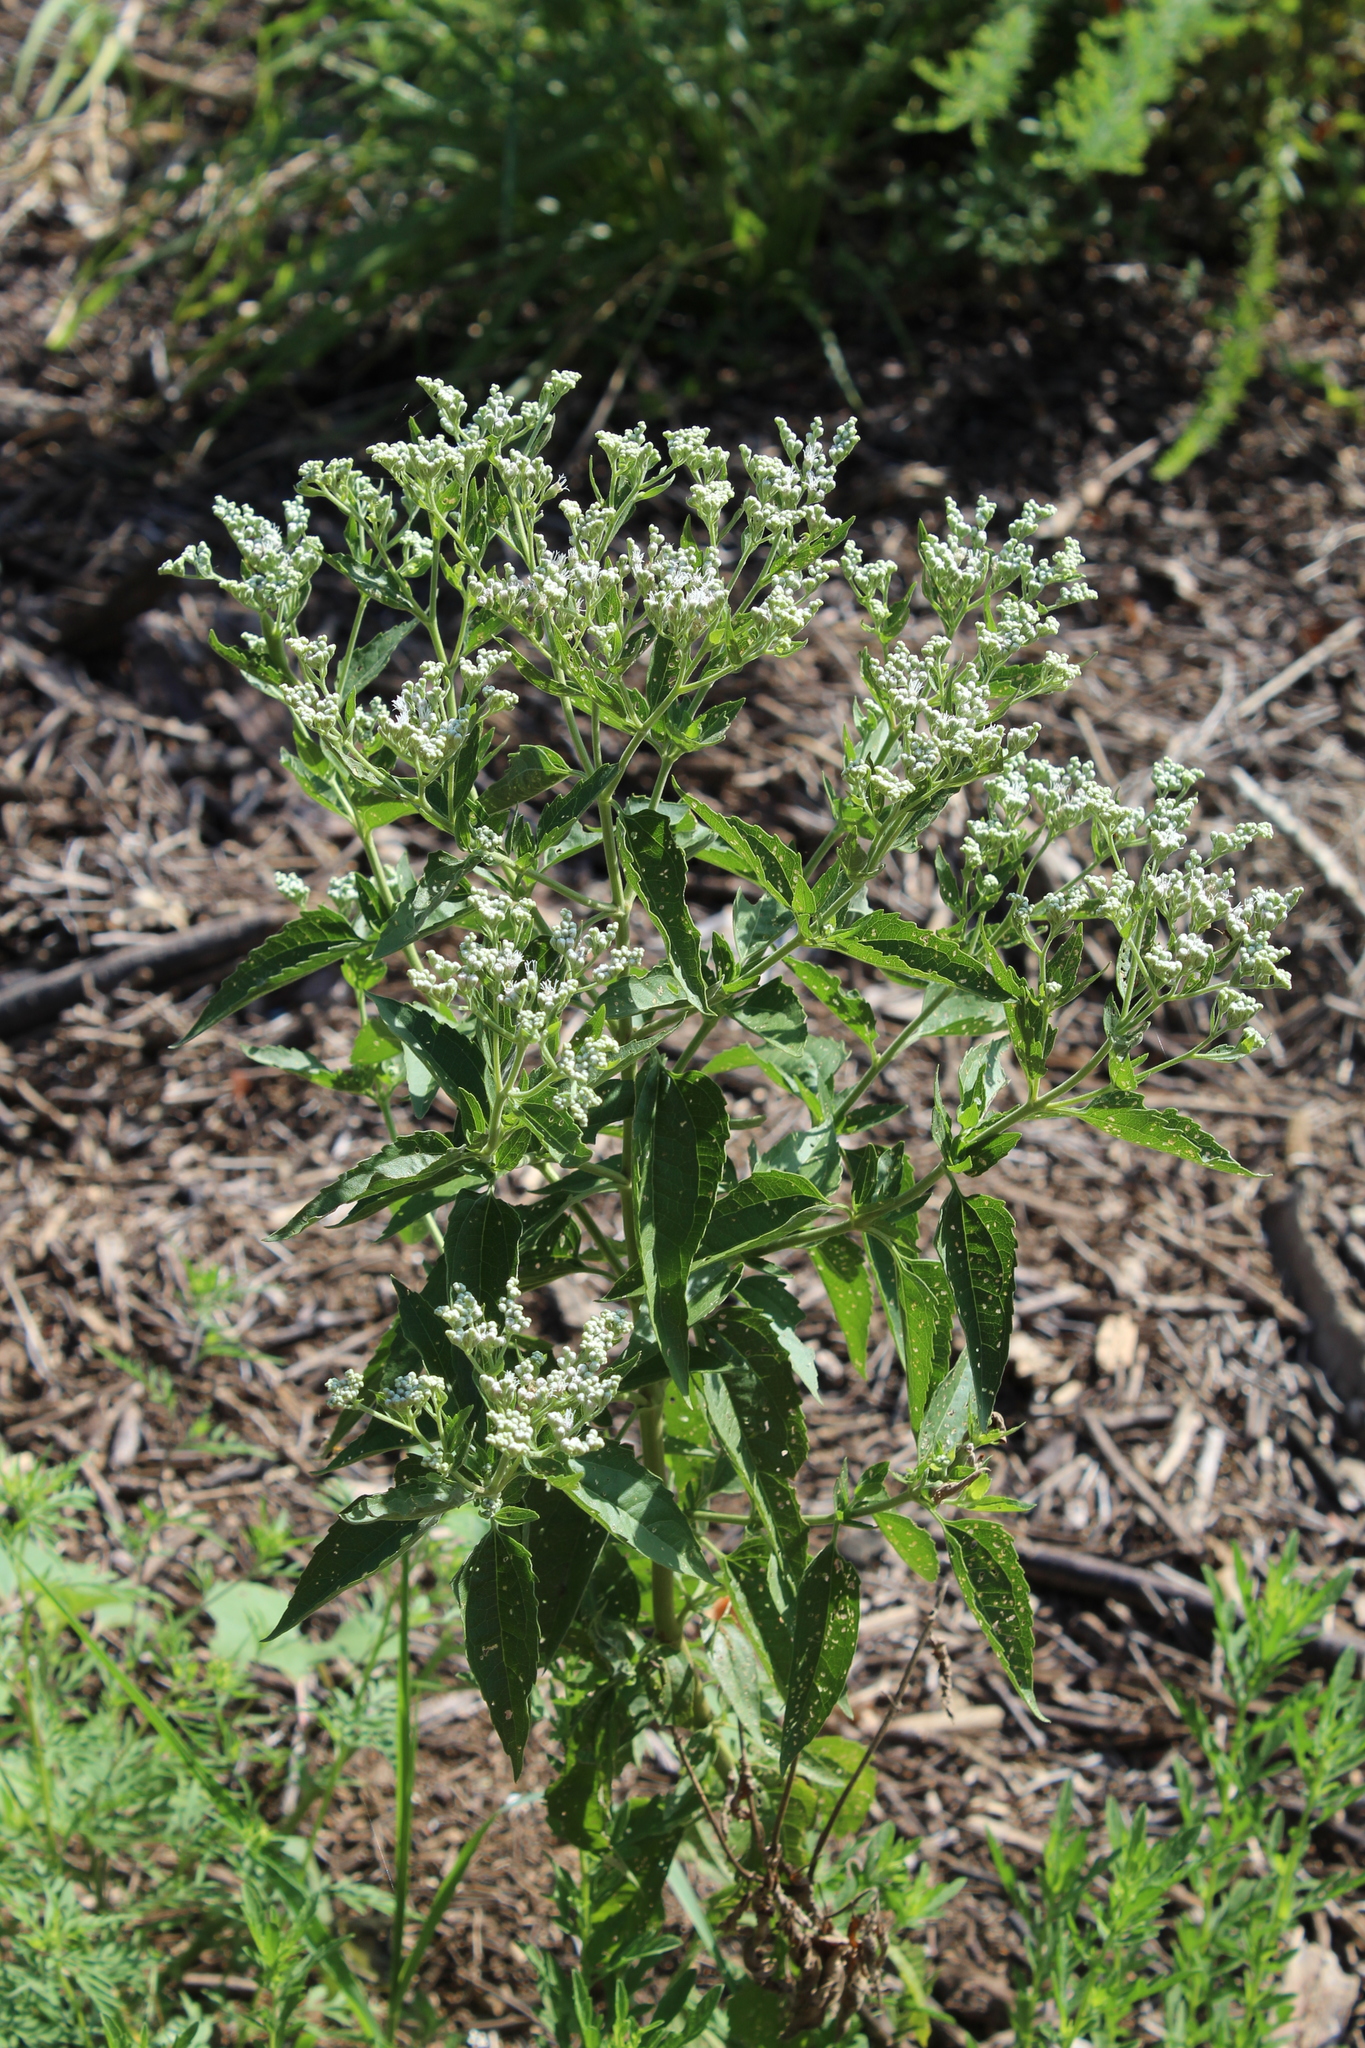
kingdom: Plantae
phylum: Tracheophyta
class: Magnoliopsida
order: Asterales
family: Asteraceae
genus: Eupatorium
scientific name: Eupatorium serotinum
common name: Late boneset
